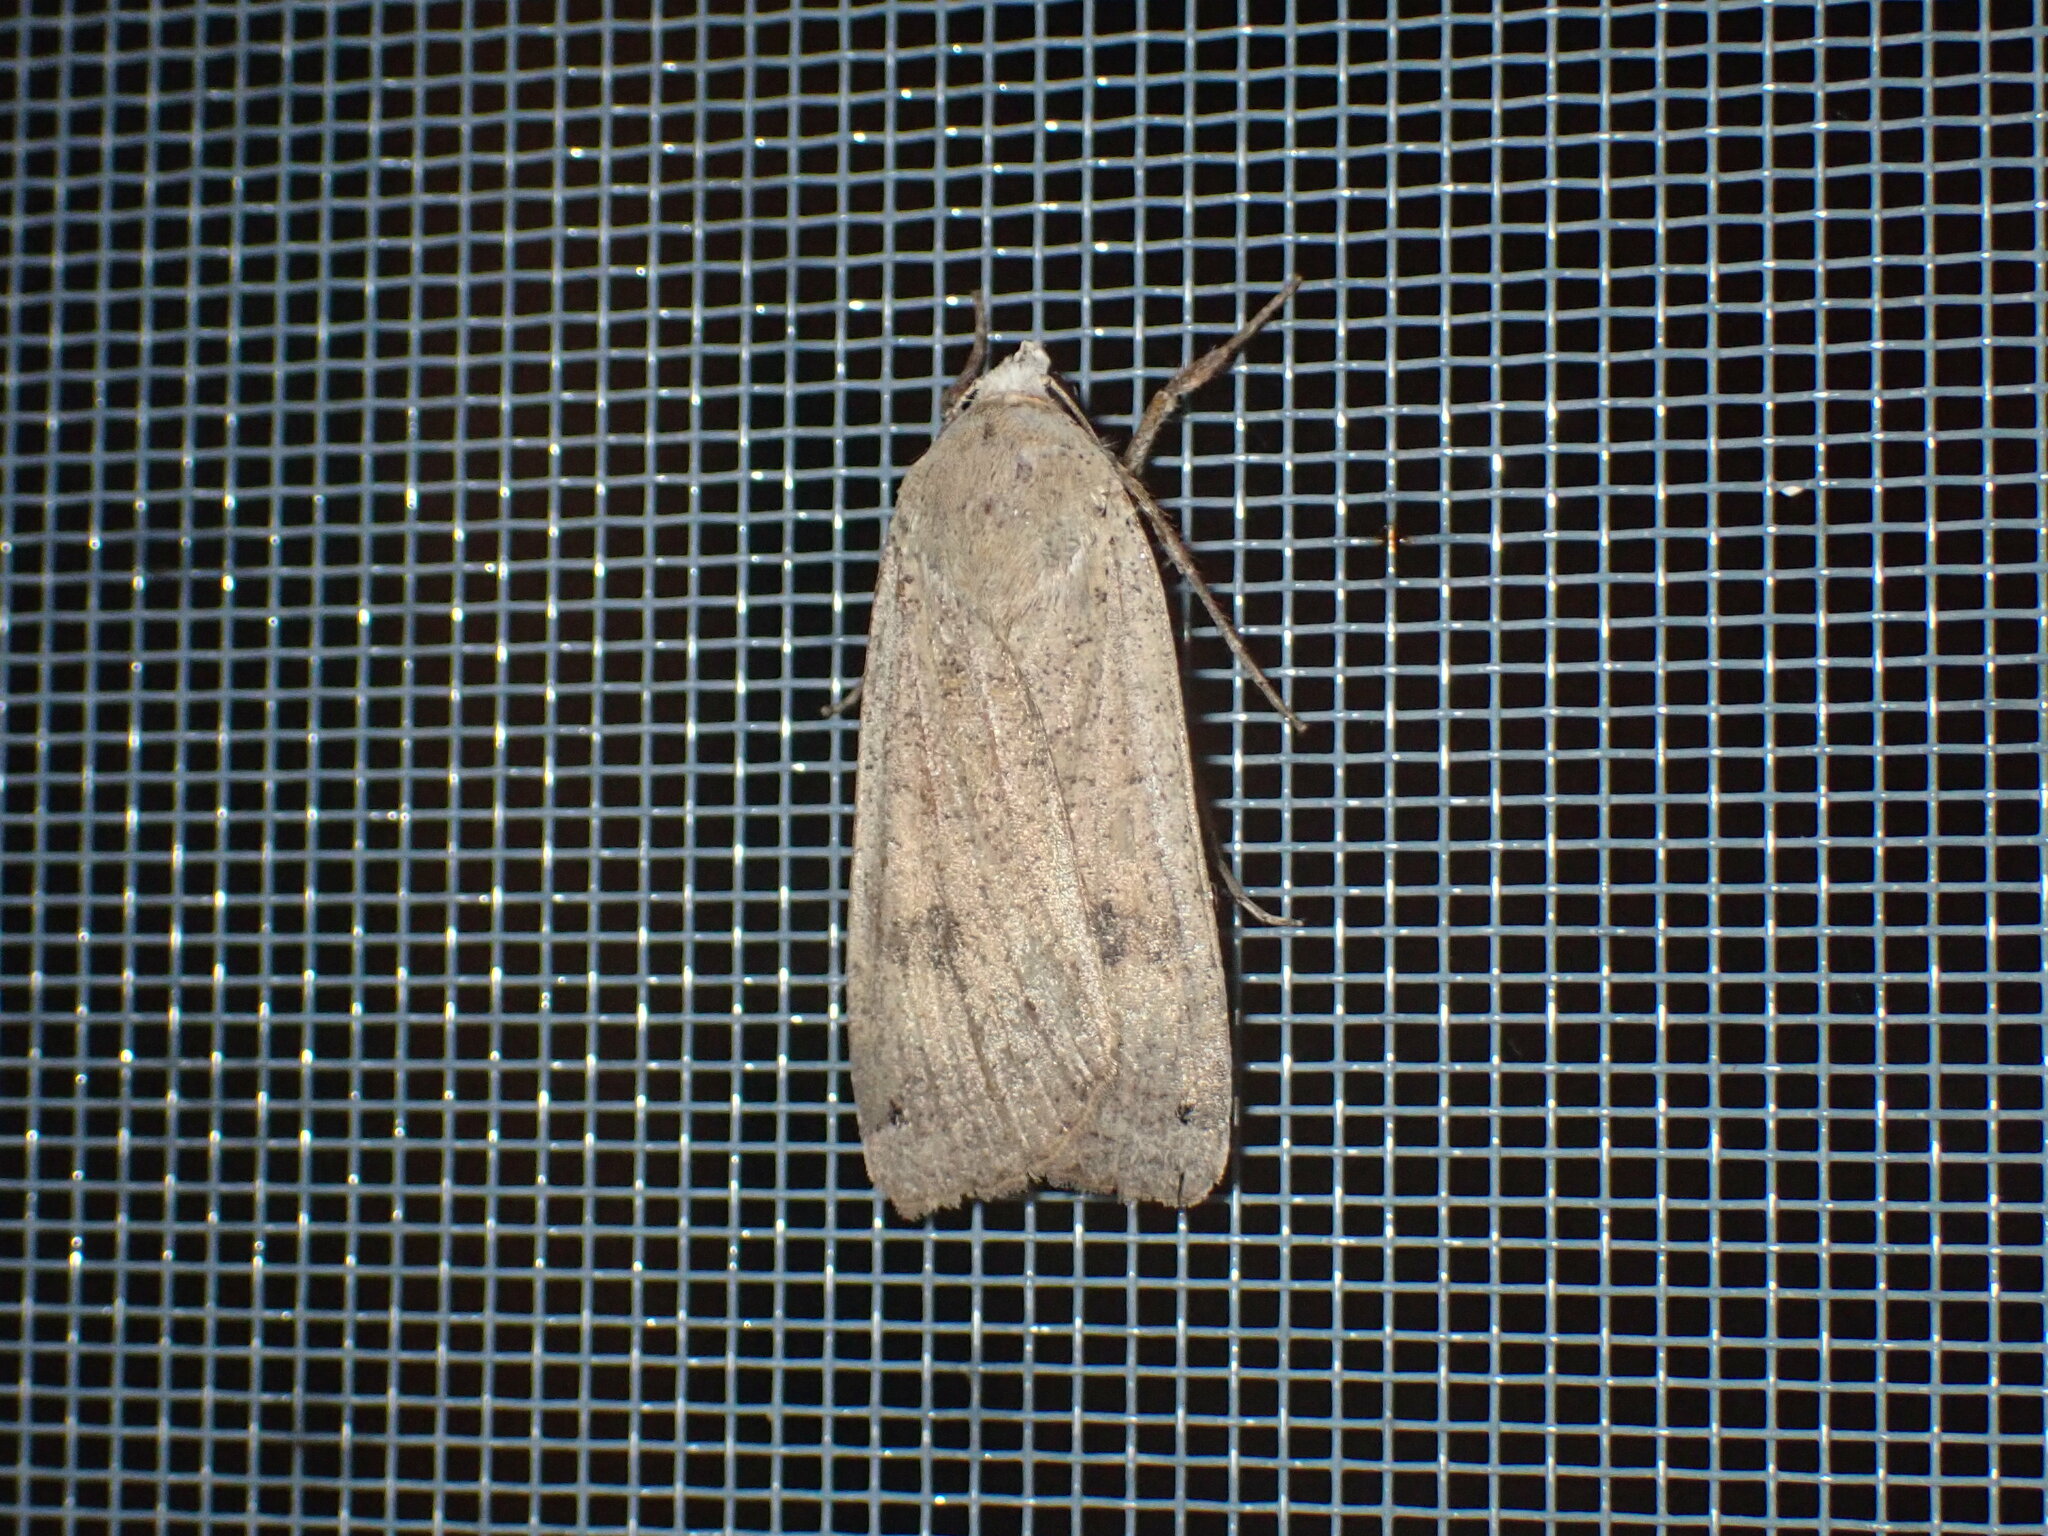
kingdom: Animalia
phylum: Arthropoda
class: Insecta
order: Lepidoptera
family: Noctuidae
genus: Noctua
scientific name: Noctua pronuba
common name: Large yellow underwing
